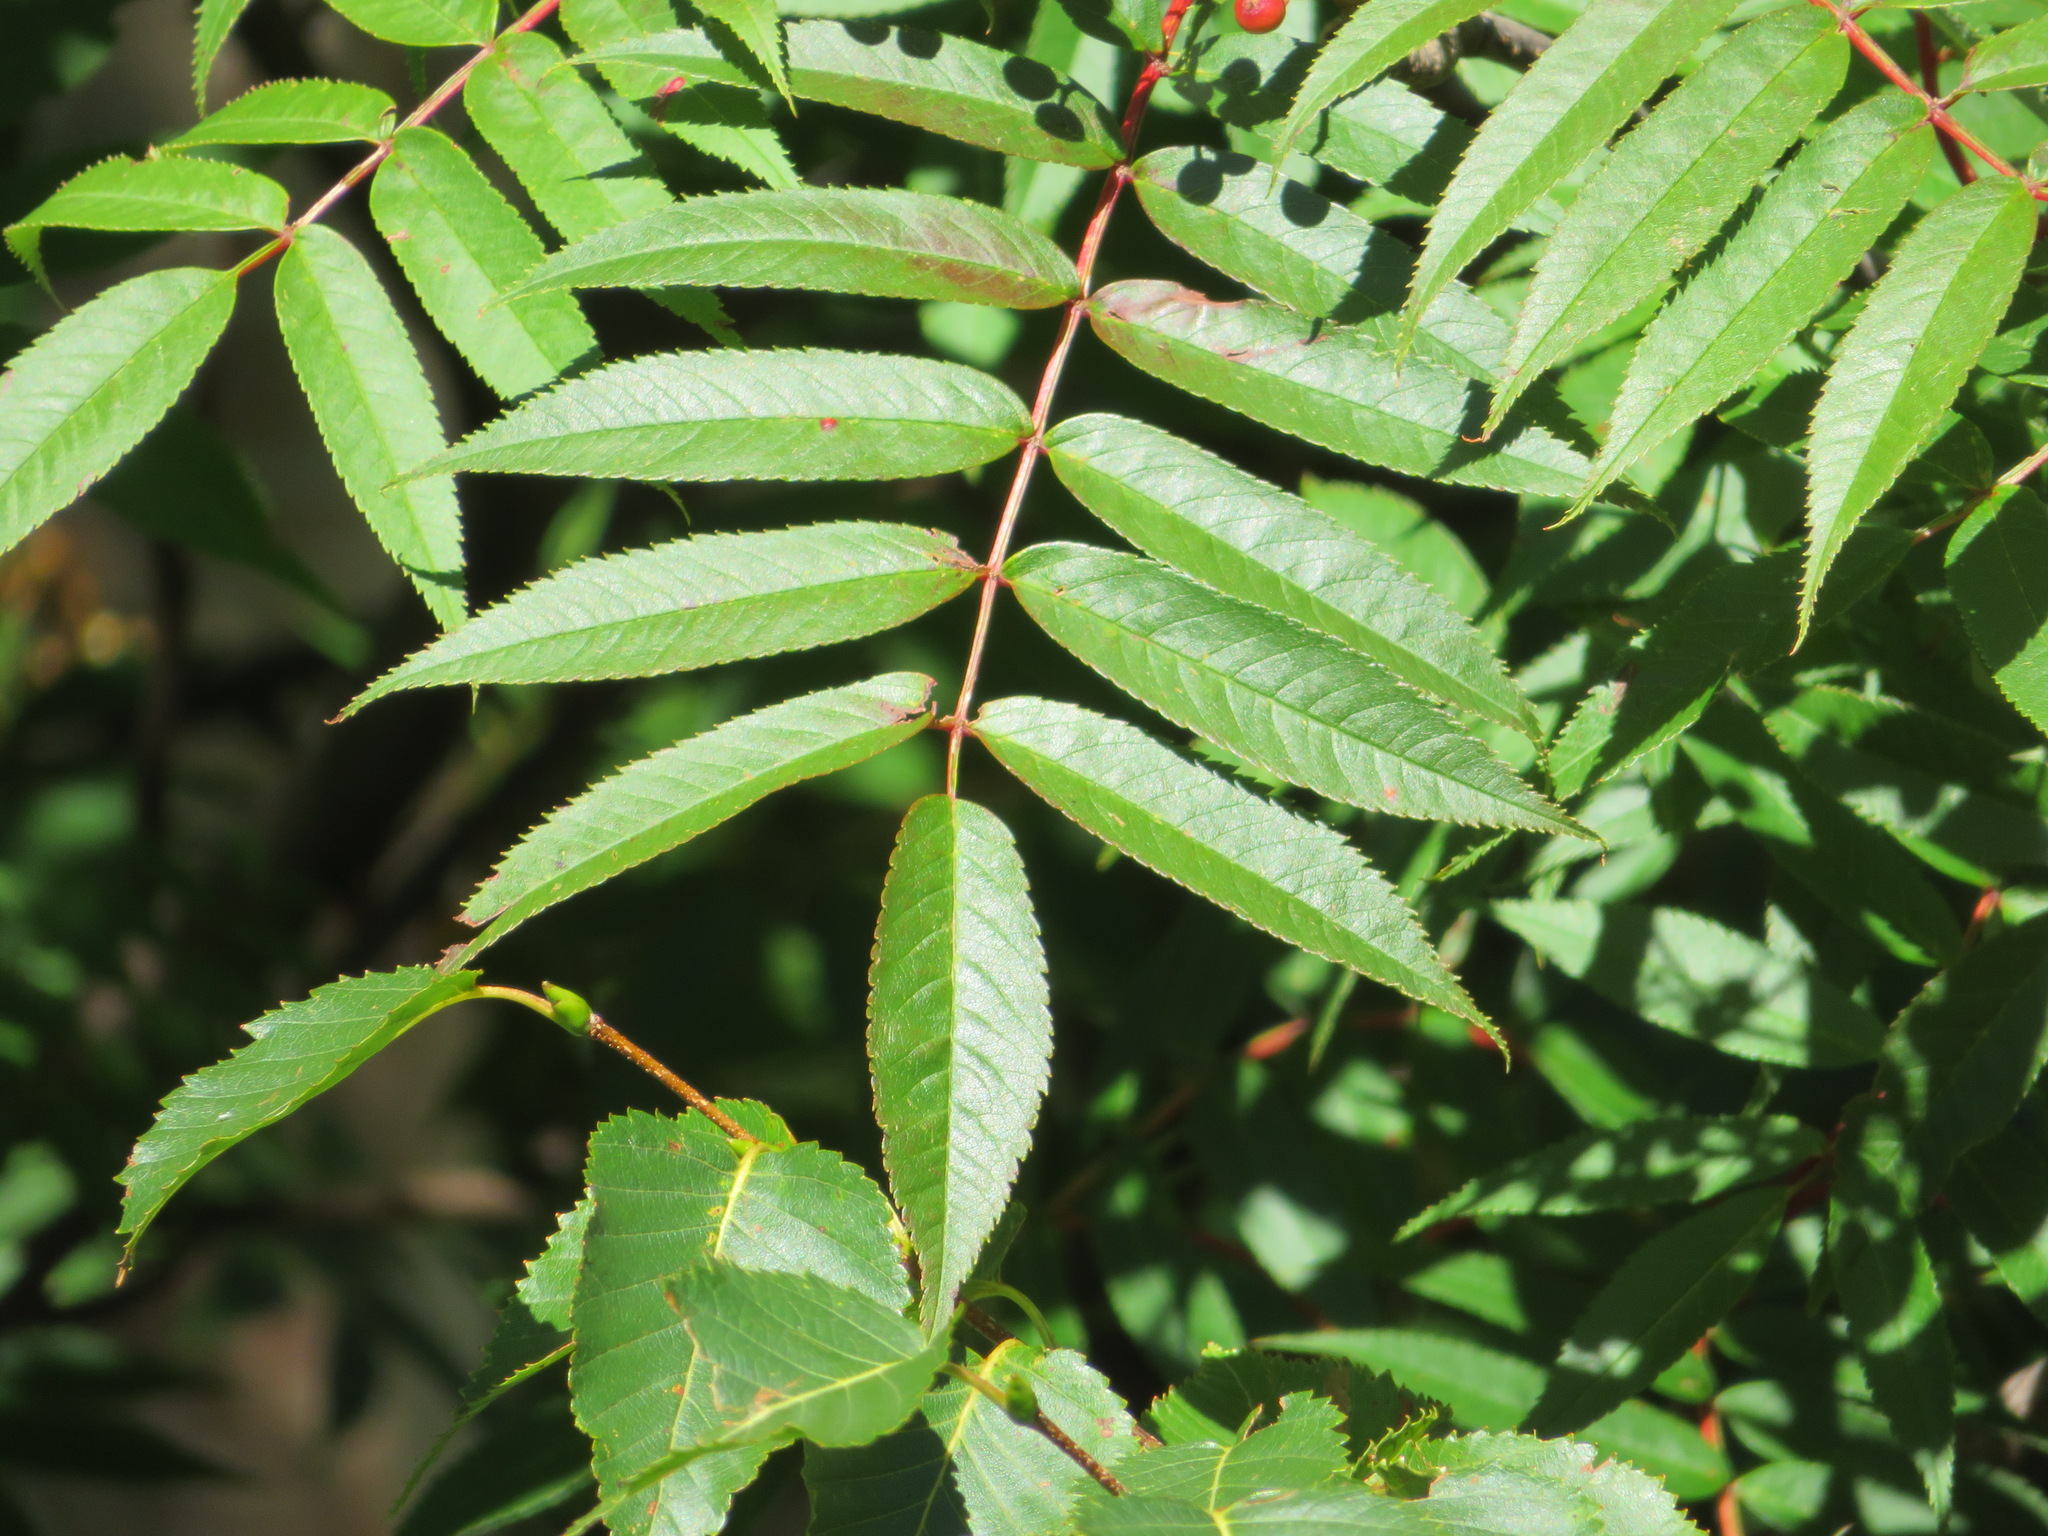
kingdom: Plantae
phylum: Tracheophyta
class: Magnoliopsida
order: Rosales
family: Rosaceae
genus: Sorbus
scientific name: Sorbus commixta
